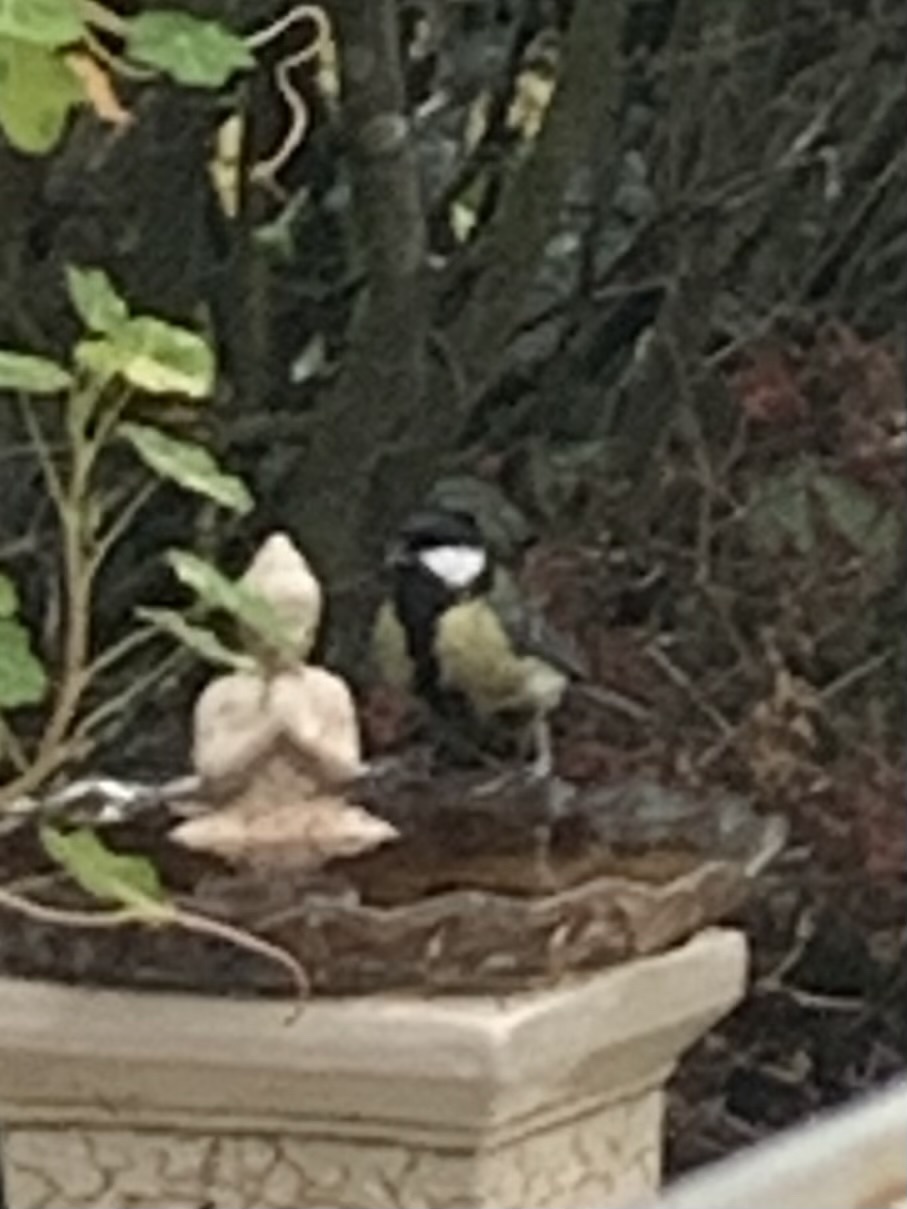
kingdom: Animalia
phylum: Chordata
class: Aves
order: Passeriformes
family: Paridae
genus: Parus
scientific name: Parus major
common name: Great tit
